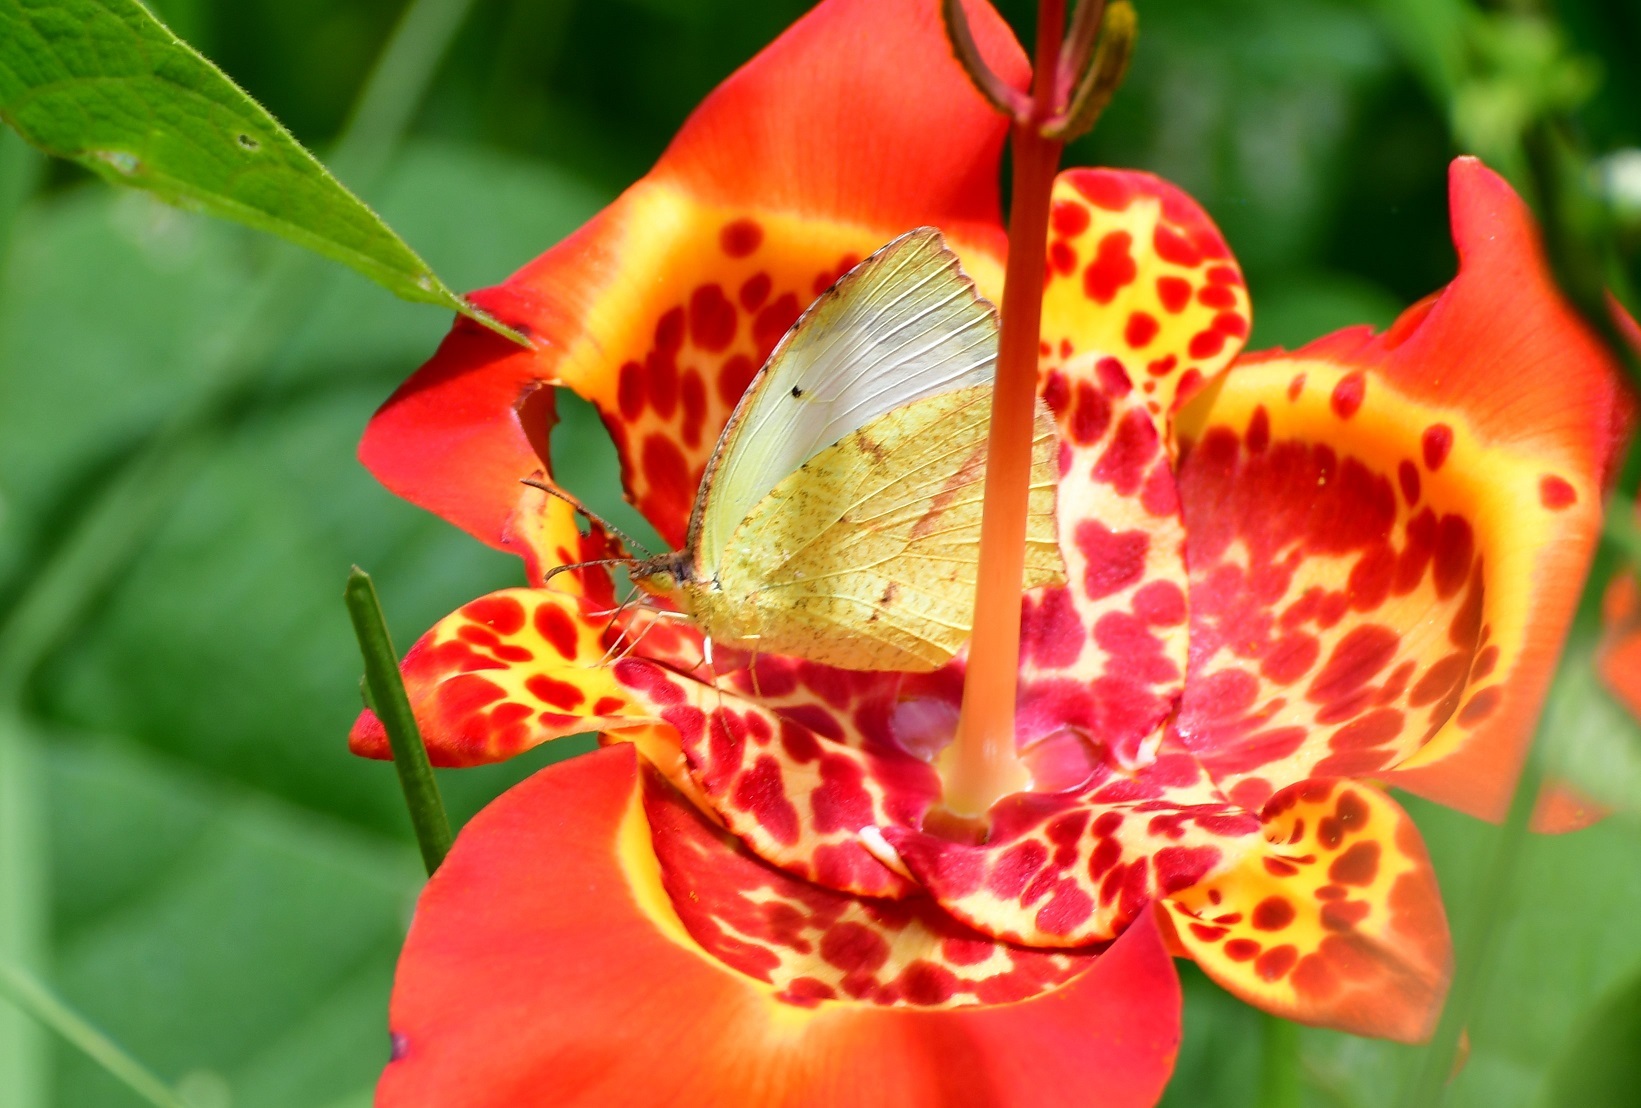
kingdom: Animalia
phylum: Arthropoda
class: Insecta
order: Lepidoptera
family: Pieridae
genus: Abaeis
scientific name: Abaeis mexicana
